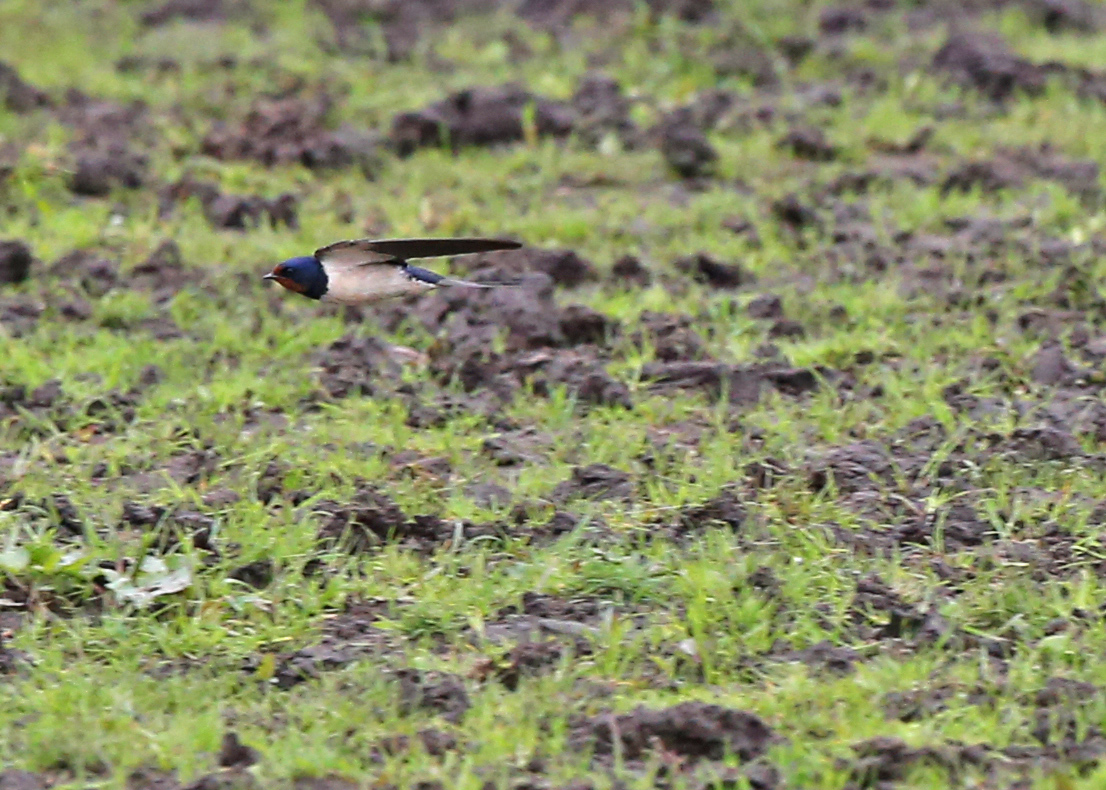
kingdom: Animalia
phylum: Chordata
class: Aves
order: Passeriformes
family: Hirundinidae
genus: Hirundo
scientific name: Hirundo rustica
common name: Barn swallow
